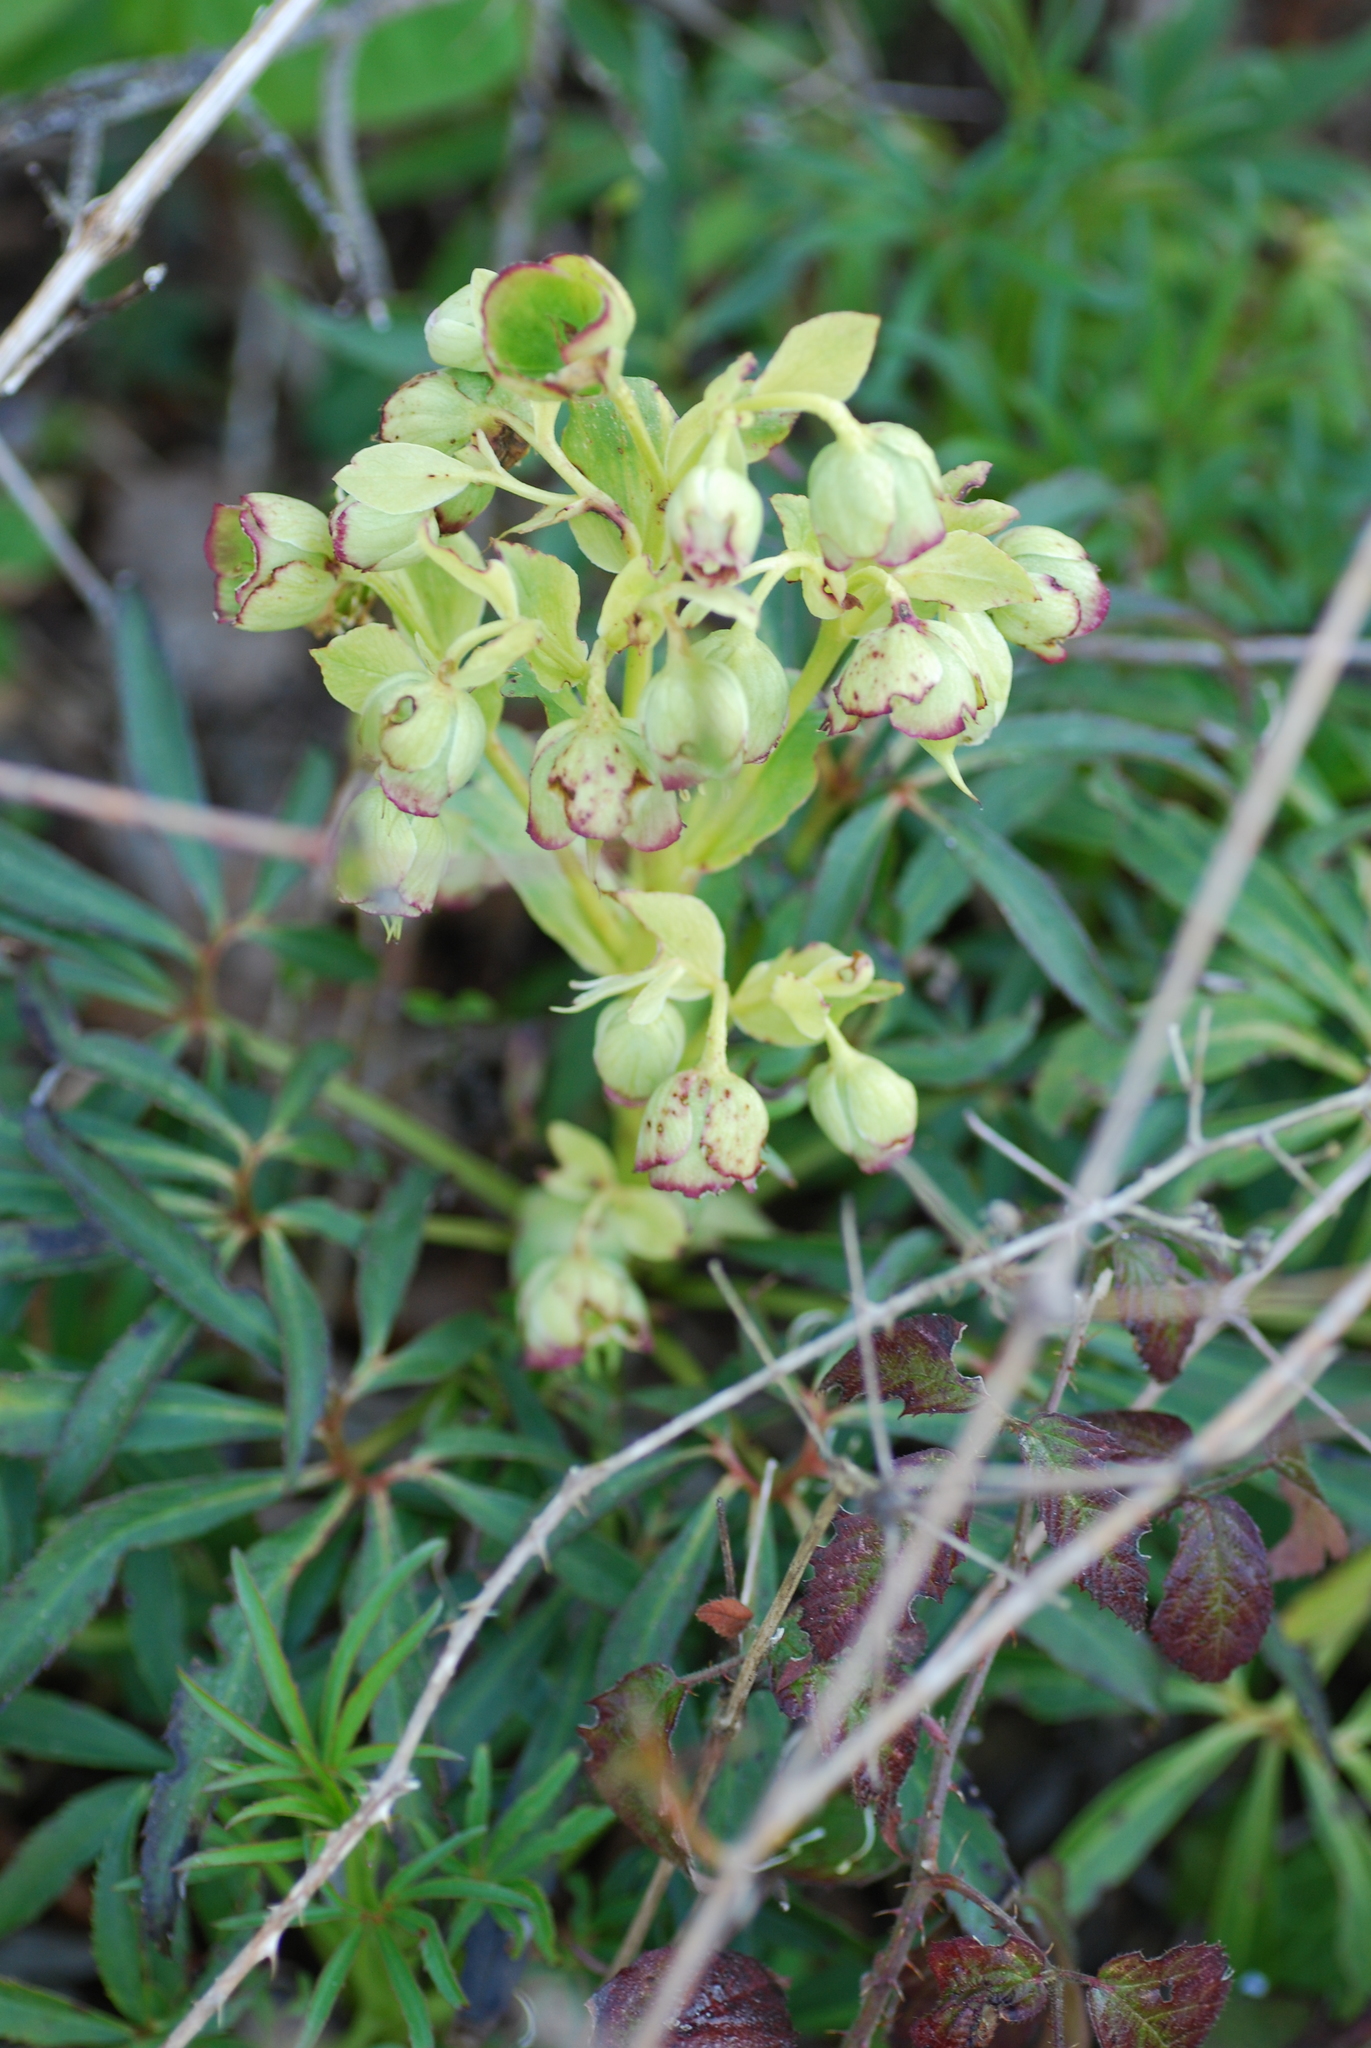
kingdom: Plantae
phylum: Tracheophyta
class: Magnoliopsida
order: Ranunculales
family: Ranunculaceae
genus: Helleborus
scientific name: Helleborus foetidus
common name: Stinking hellebore
